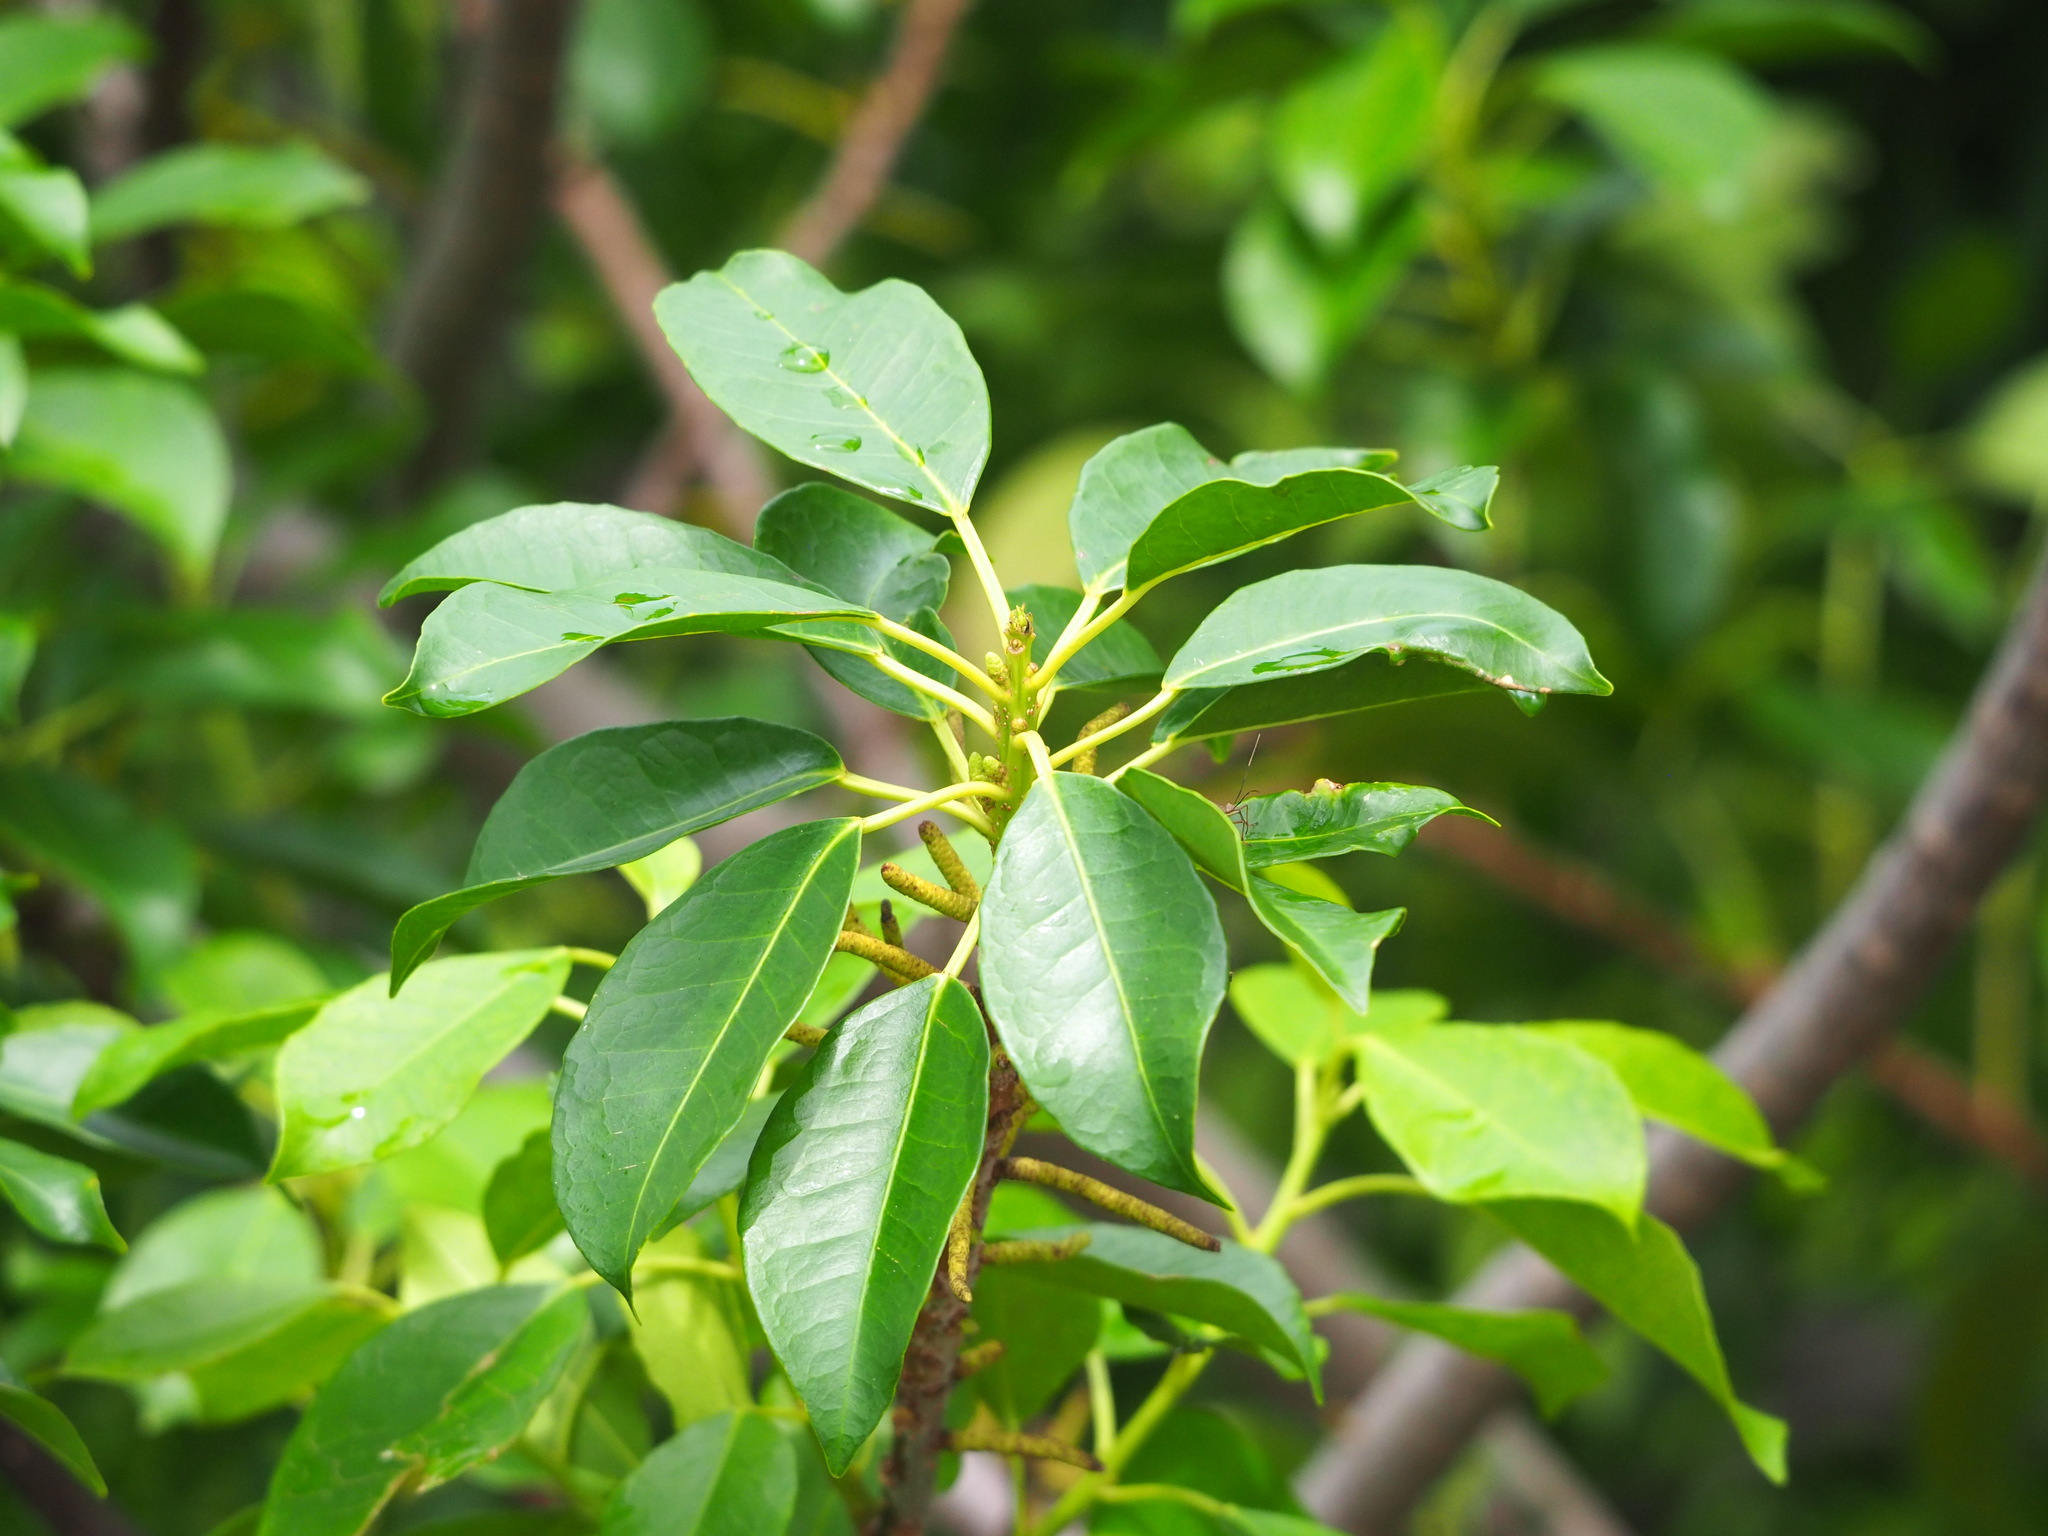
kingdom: Plantae
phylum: Tracheophyta
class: Magnoliopsida
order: Malpighiales
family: Euphorbiaceae
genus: Excoecaria
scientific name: Excoecaria agallocha
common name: River poisontree
